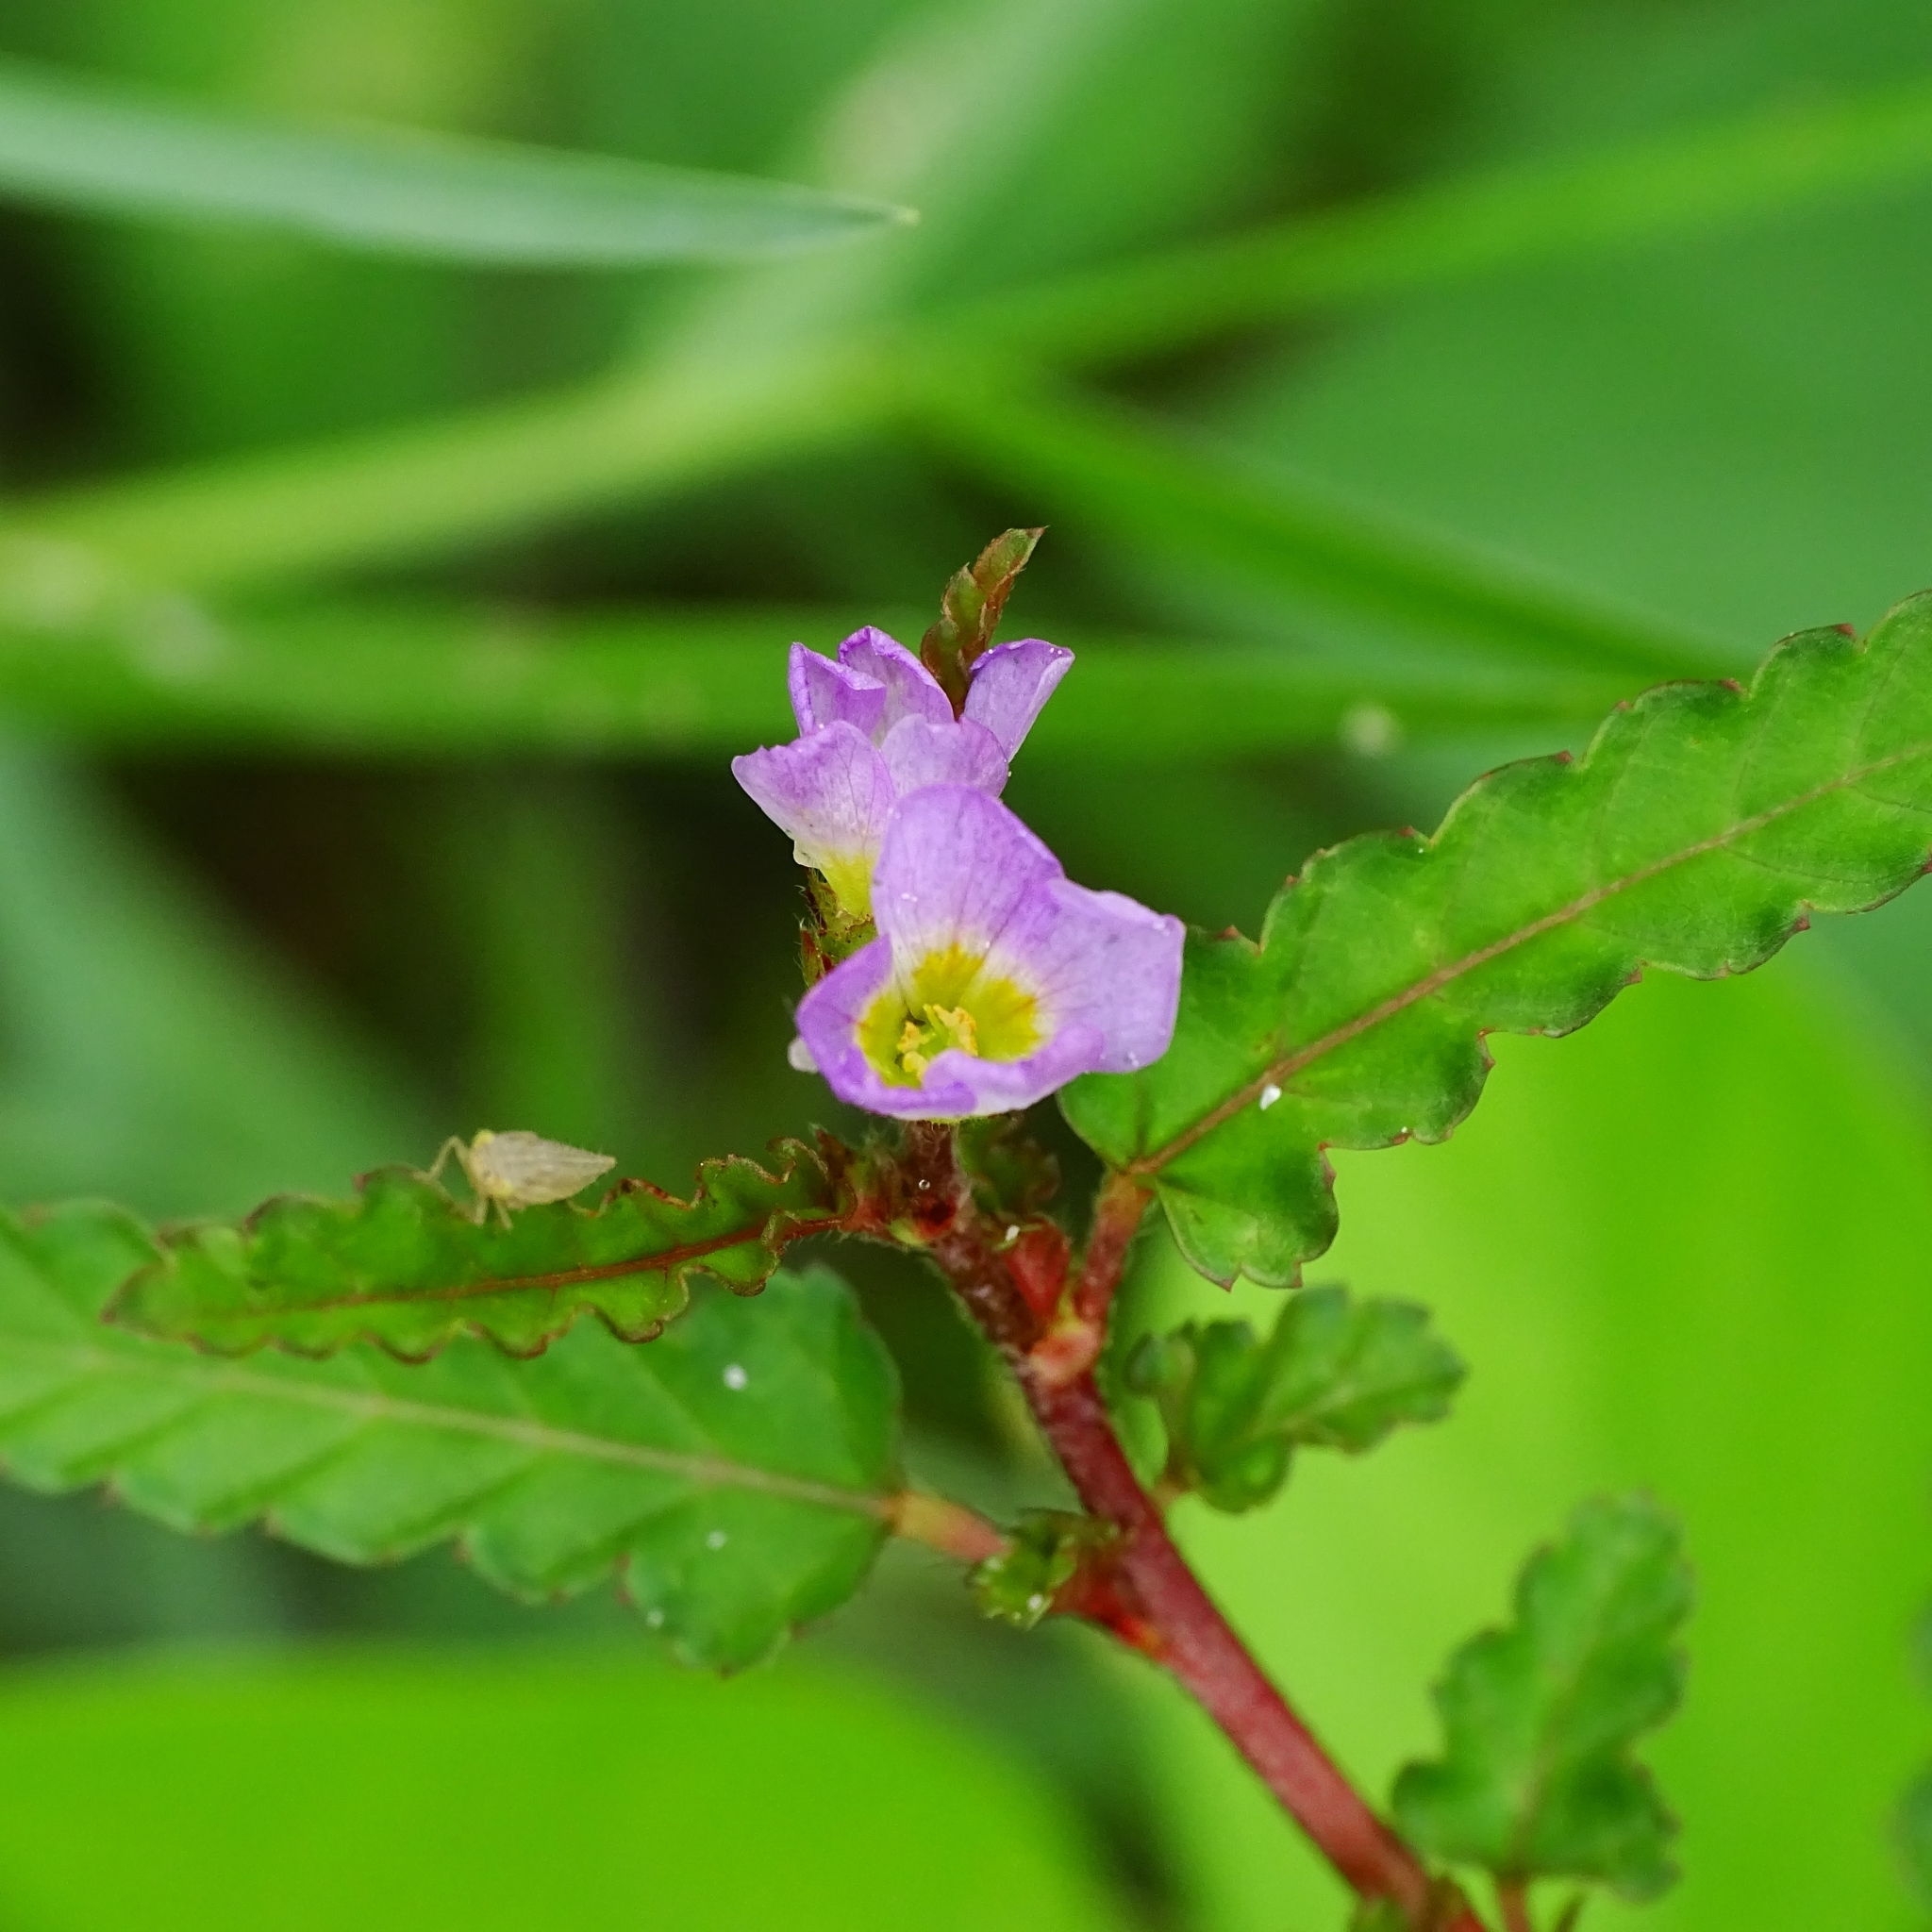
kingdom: Plantae
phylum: Tracheophyta
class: Magnoliopsida
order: Malvales
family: Malvaceae
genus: Melochia
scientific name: Melochia corchorifolia
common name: Chocolateweed
